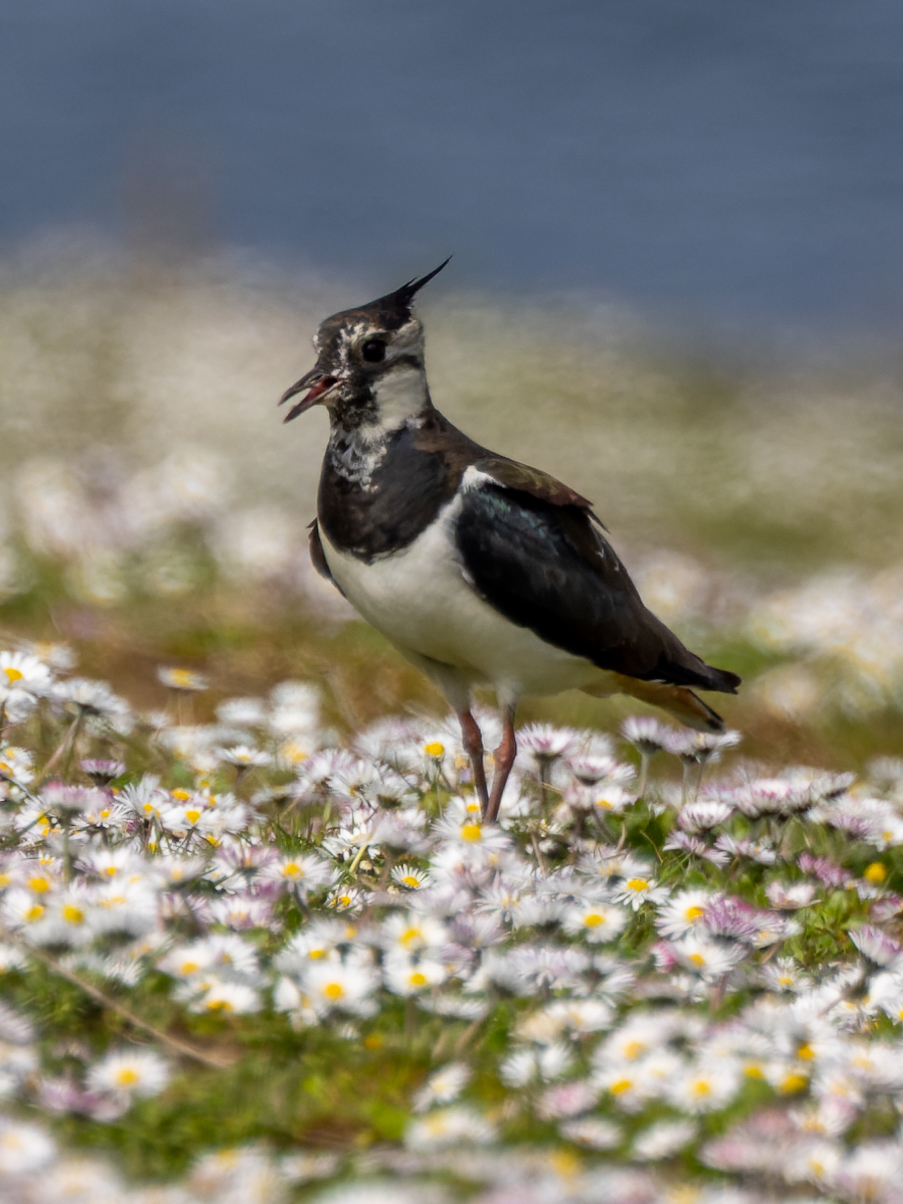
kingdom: Animalia
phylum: Chordata
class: Aves
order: Charadriiformes
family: Charadriidae
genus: Vanellus
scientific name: Vanellus vanellus
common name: Northern lapwing
